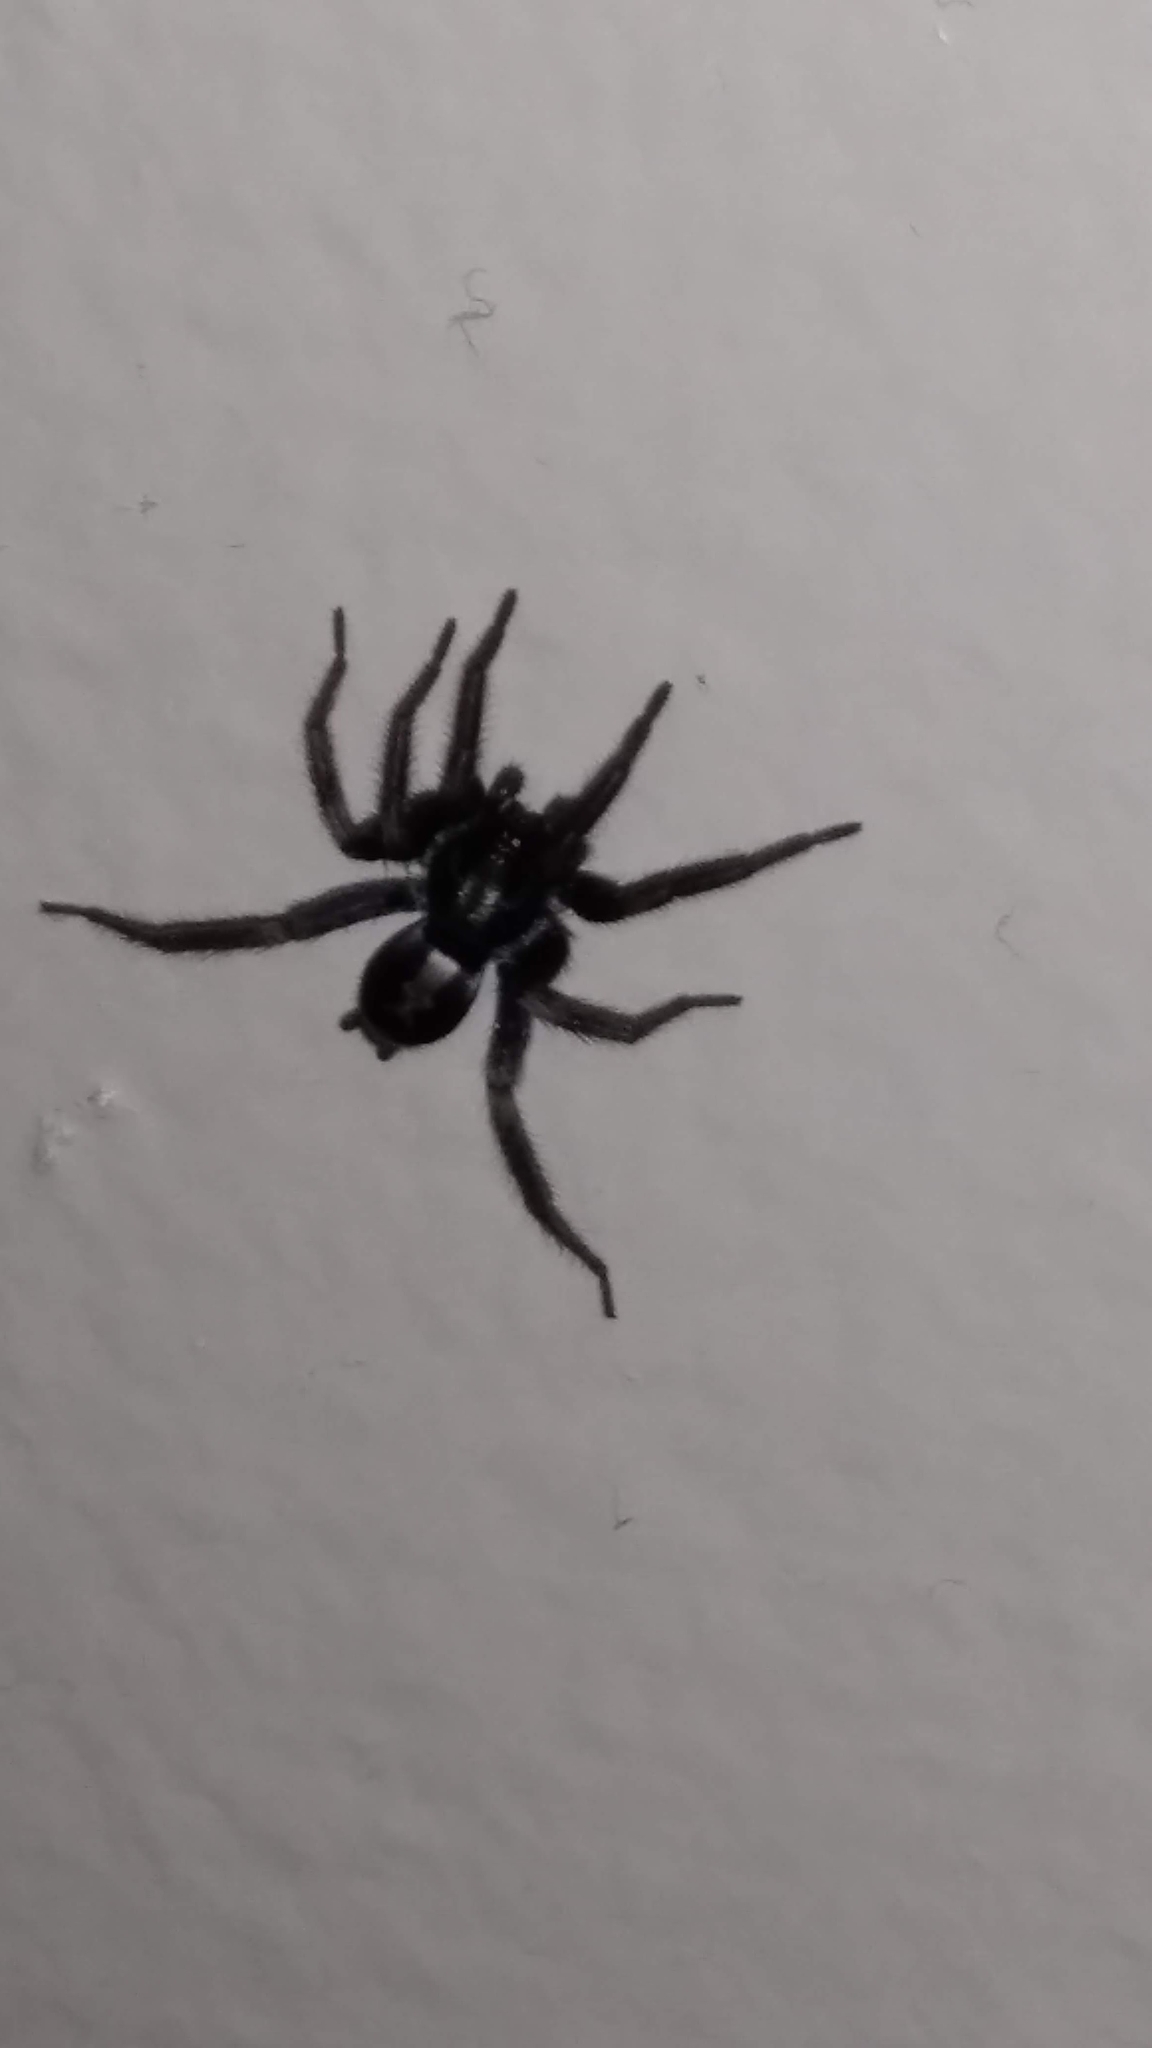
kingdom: Animalia
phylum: Arthropoda
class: Arachnida
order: Araneae
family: Gnaphosidae
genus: Herpyllus
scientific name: Herpyllus ecclesiasticus
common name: Eastern parson spider
